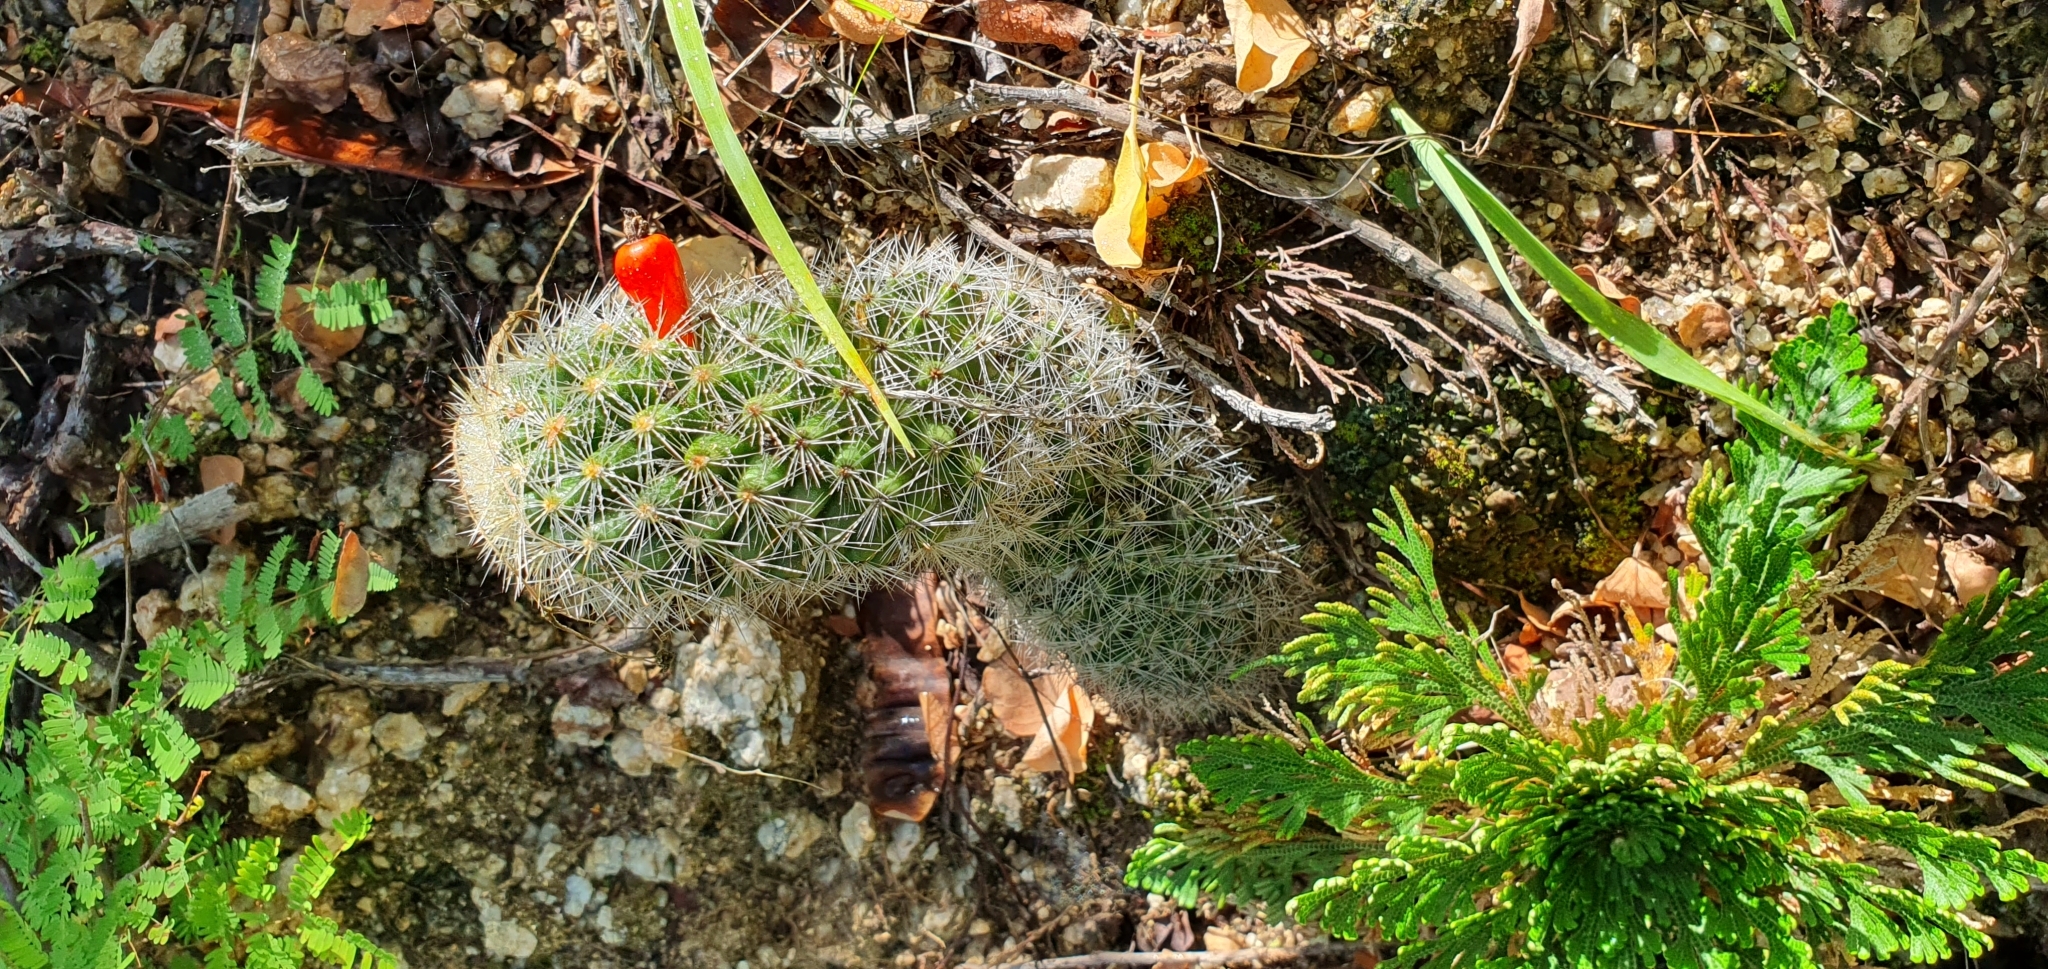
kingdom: Plantae
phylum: Tracheophyta
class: Magnoliopsida
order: Caryophyllales
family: Cactaceae
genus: Cochemiea
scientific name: Cochemiea phitauiana
